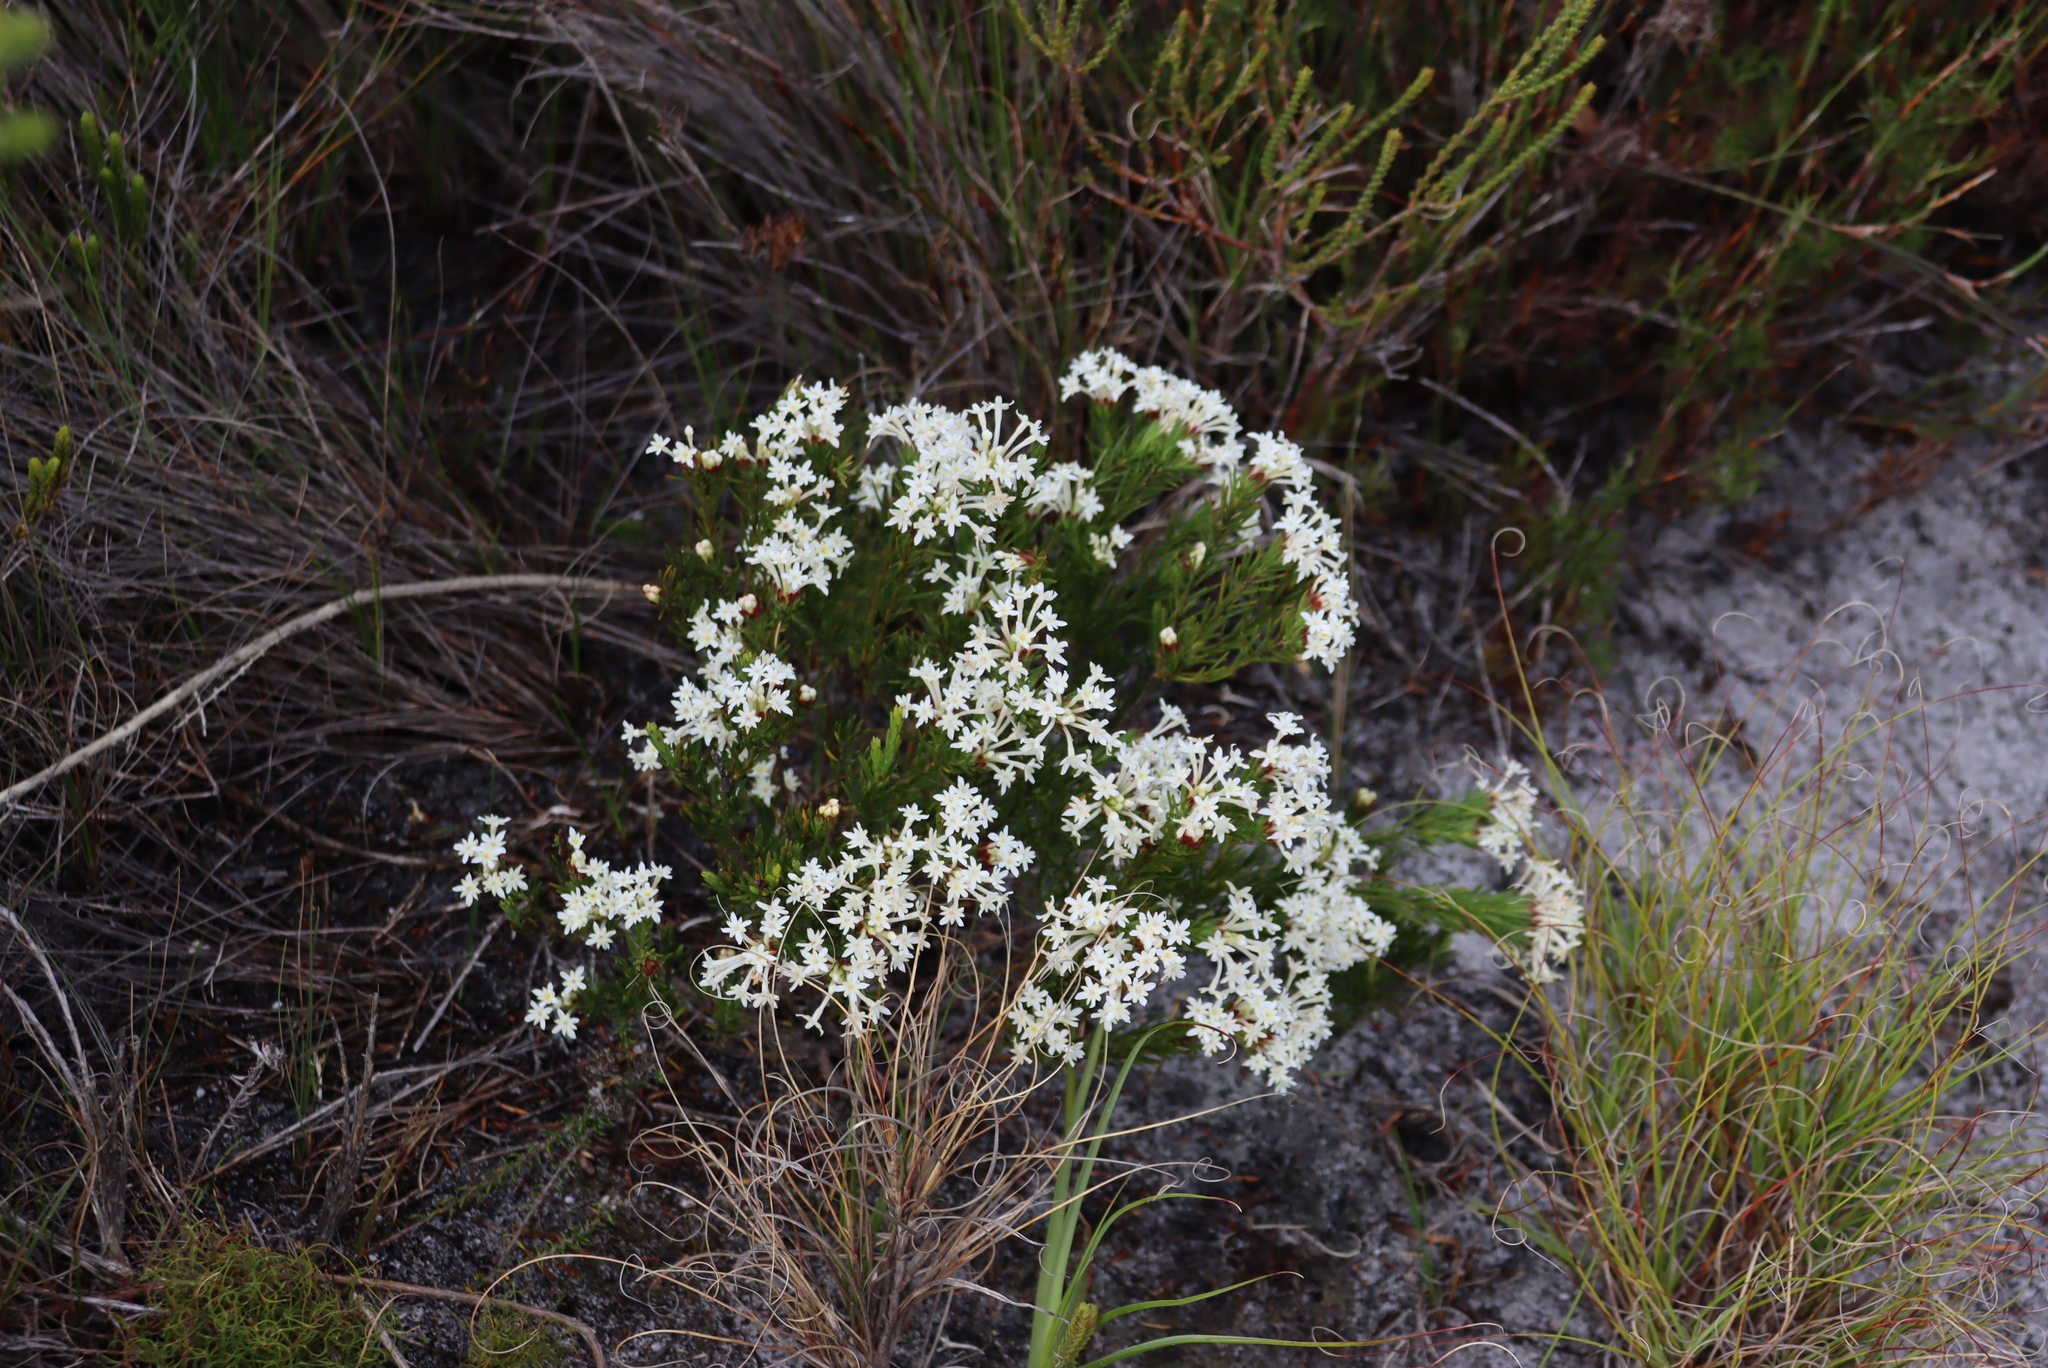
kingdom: Plantae
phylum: Tracheophyta
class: Magnoliopsida
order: Malvales
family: Thymelaeaceae
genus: Gnidia
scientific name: Gnidia pinifolia
